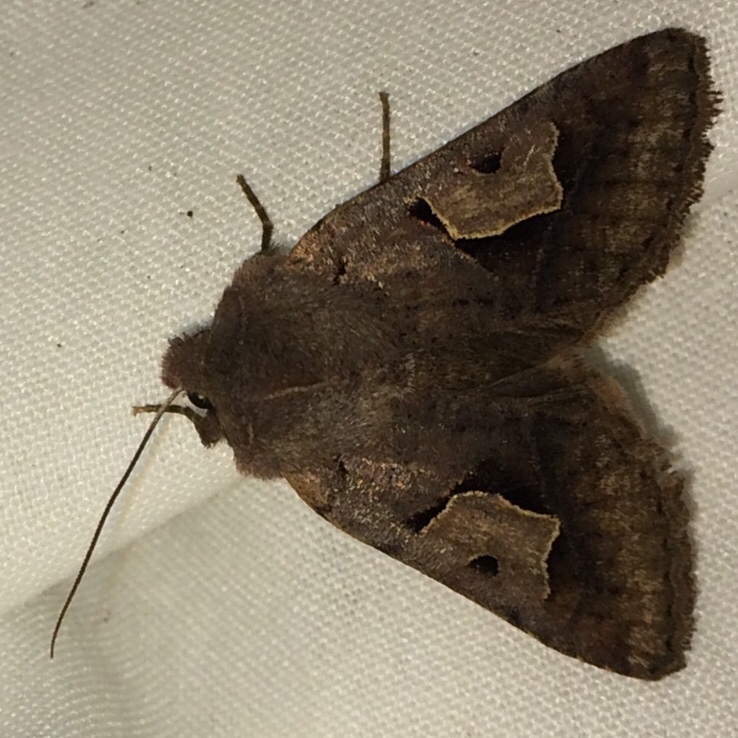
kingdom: Animalia
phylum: Arthropoda
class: Insecta
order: Lepidoptera
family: Noctuidae
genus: Acerra
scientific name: Acerra normalis
